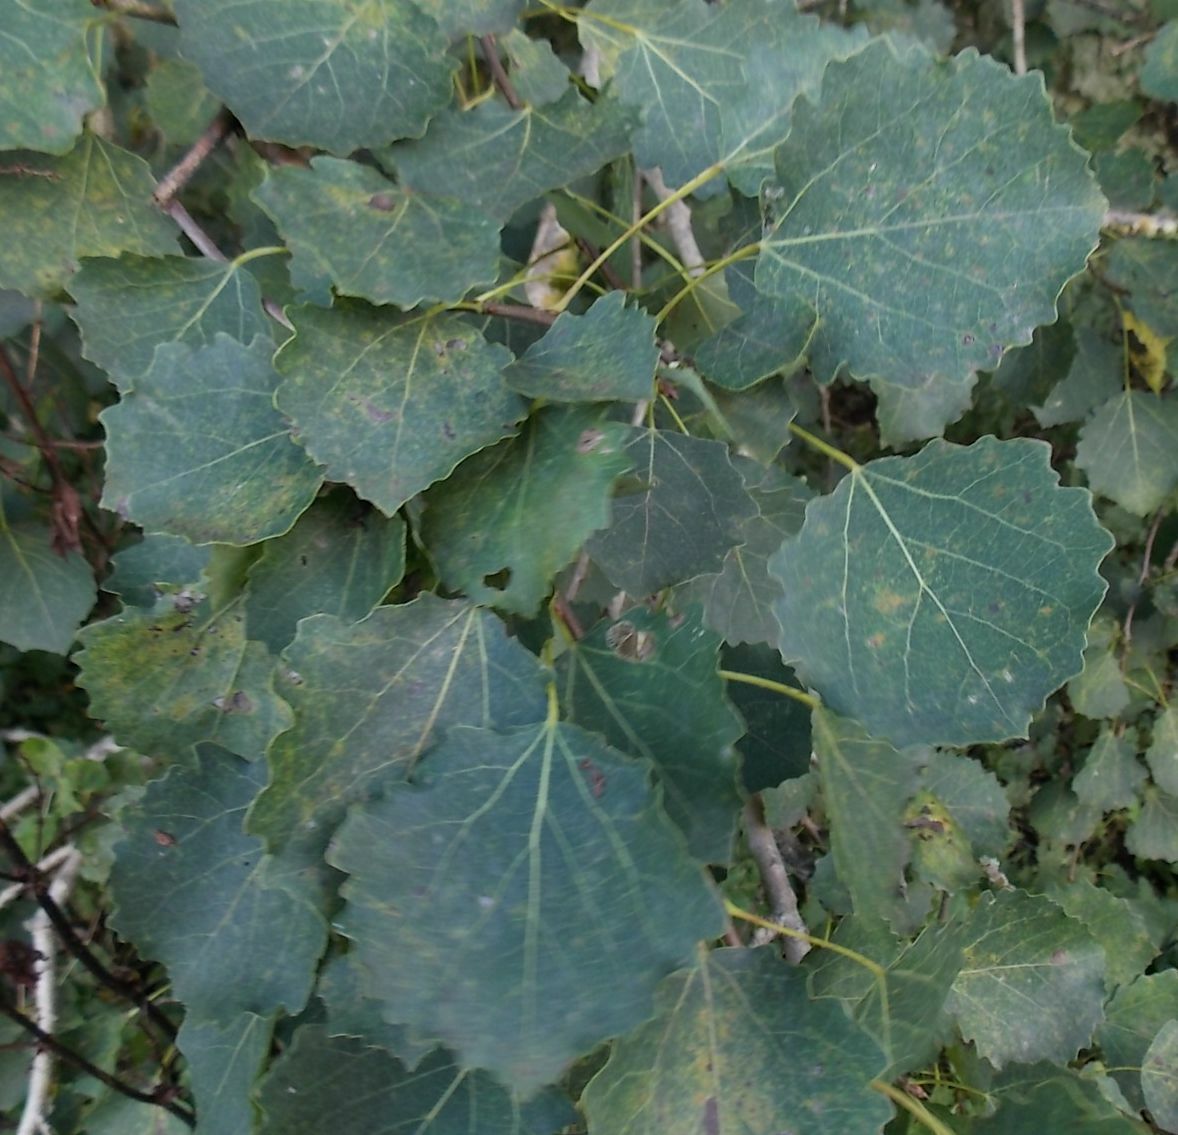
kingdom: Plantae
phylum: Tracheophyta
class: Magnoliopsida
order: Malpighiales
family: Salicaceae
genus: Populus
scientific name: Populus tremula
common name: European aspen
